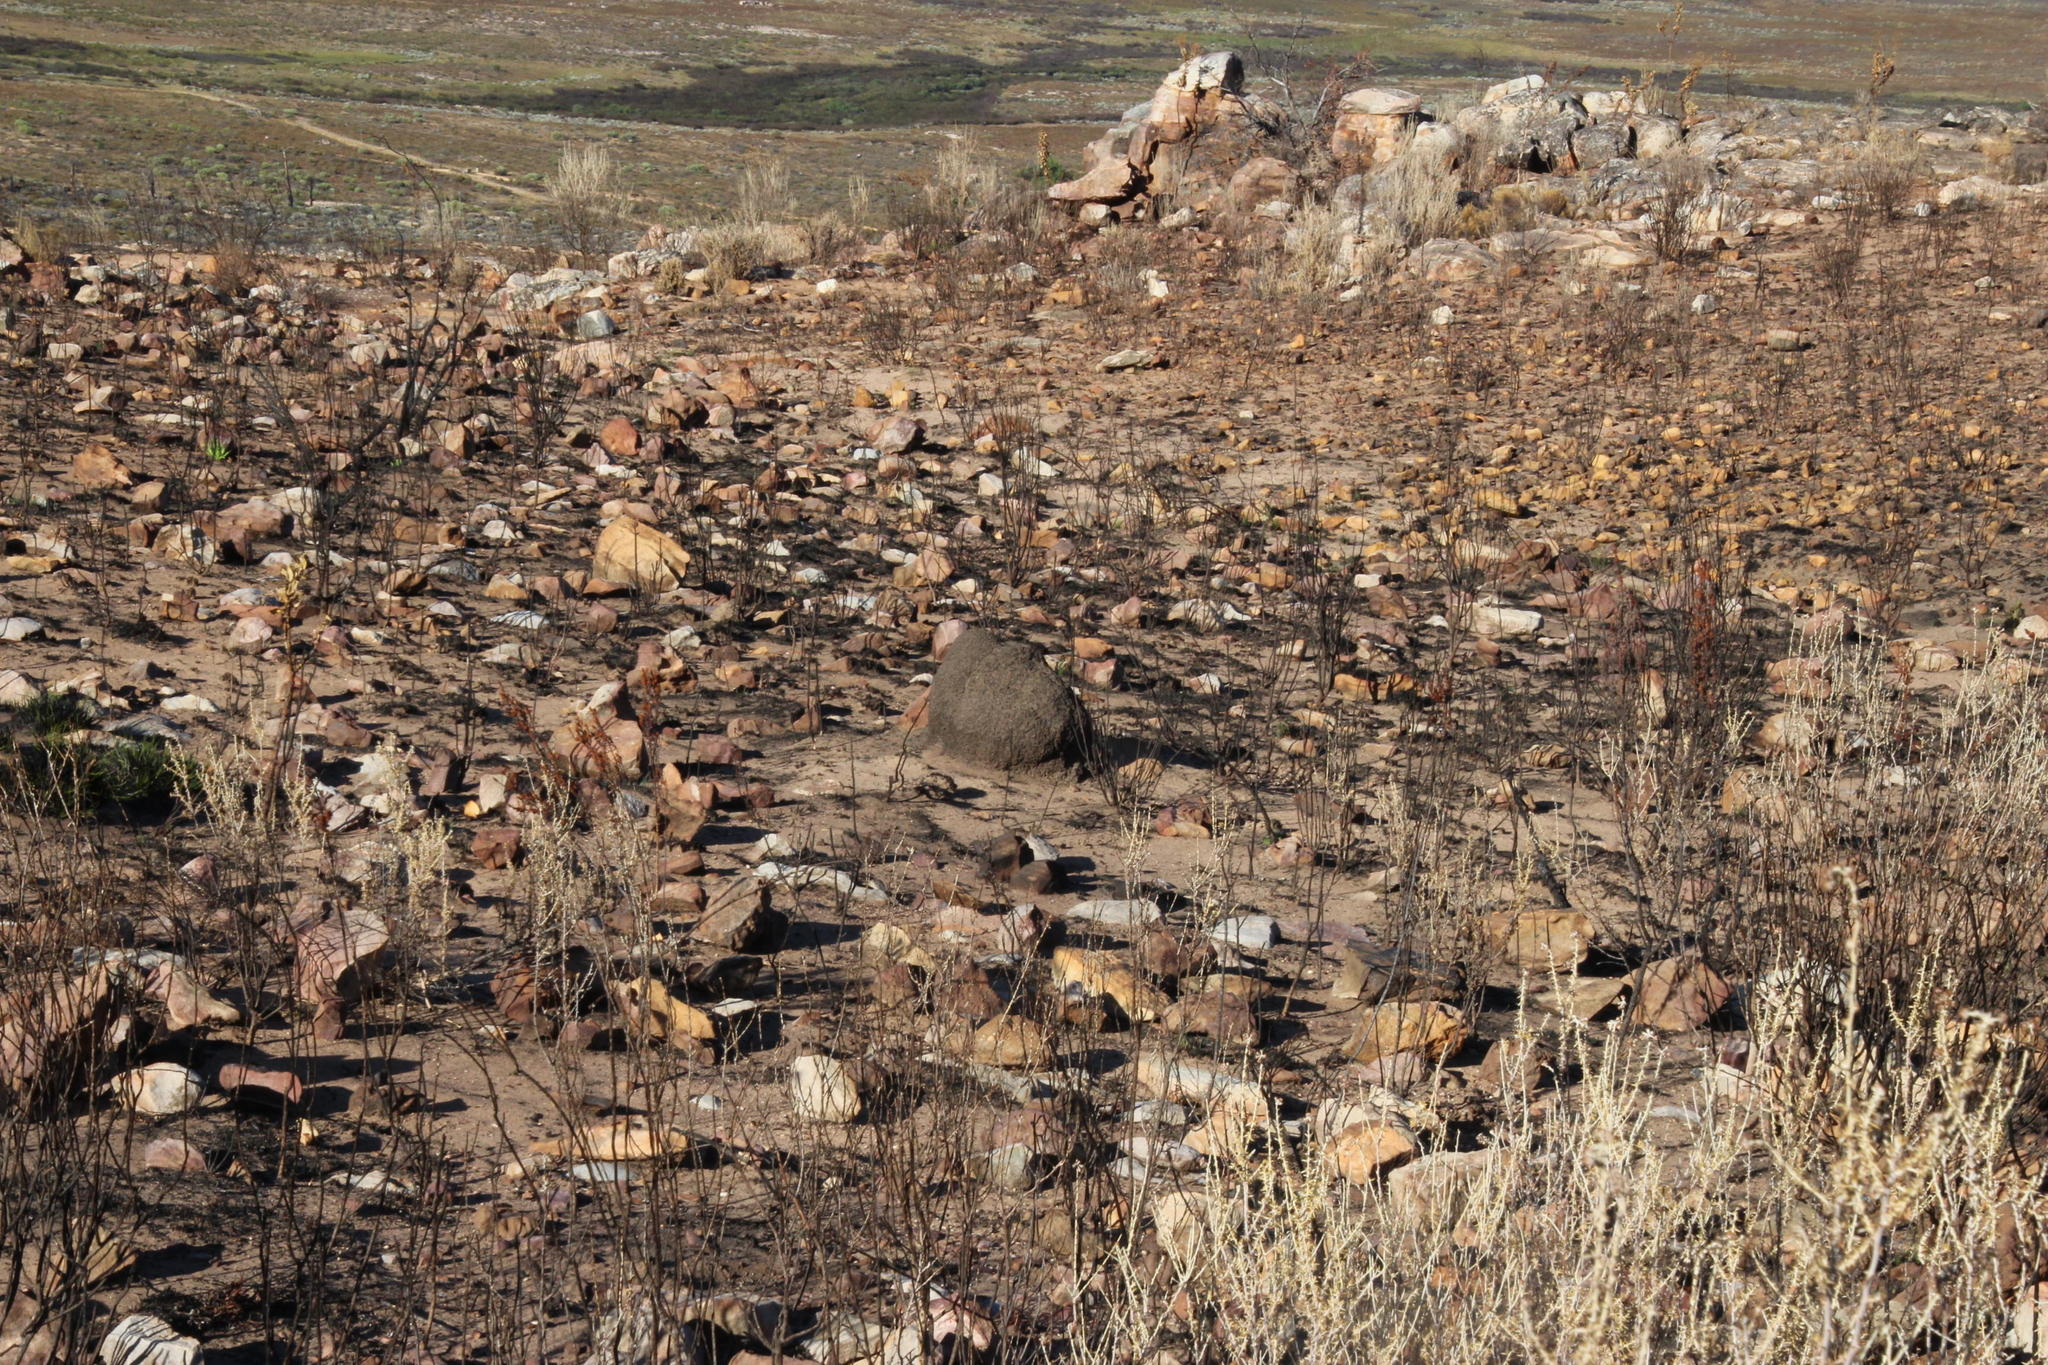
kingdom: Animalia
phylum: Arthropoda
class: Insecta
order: Blattodea
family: Termitidae
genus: Amitermes
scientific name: Amitermes hastatus
